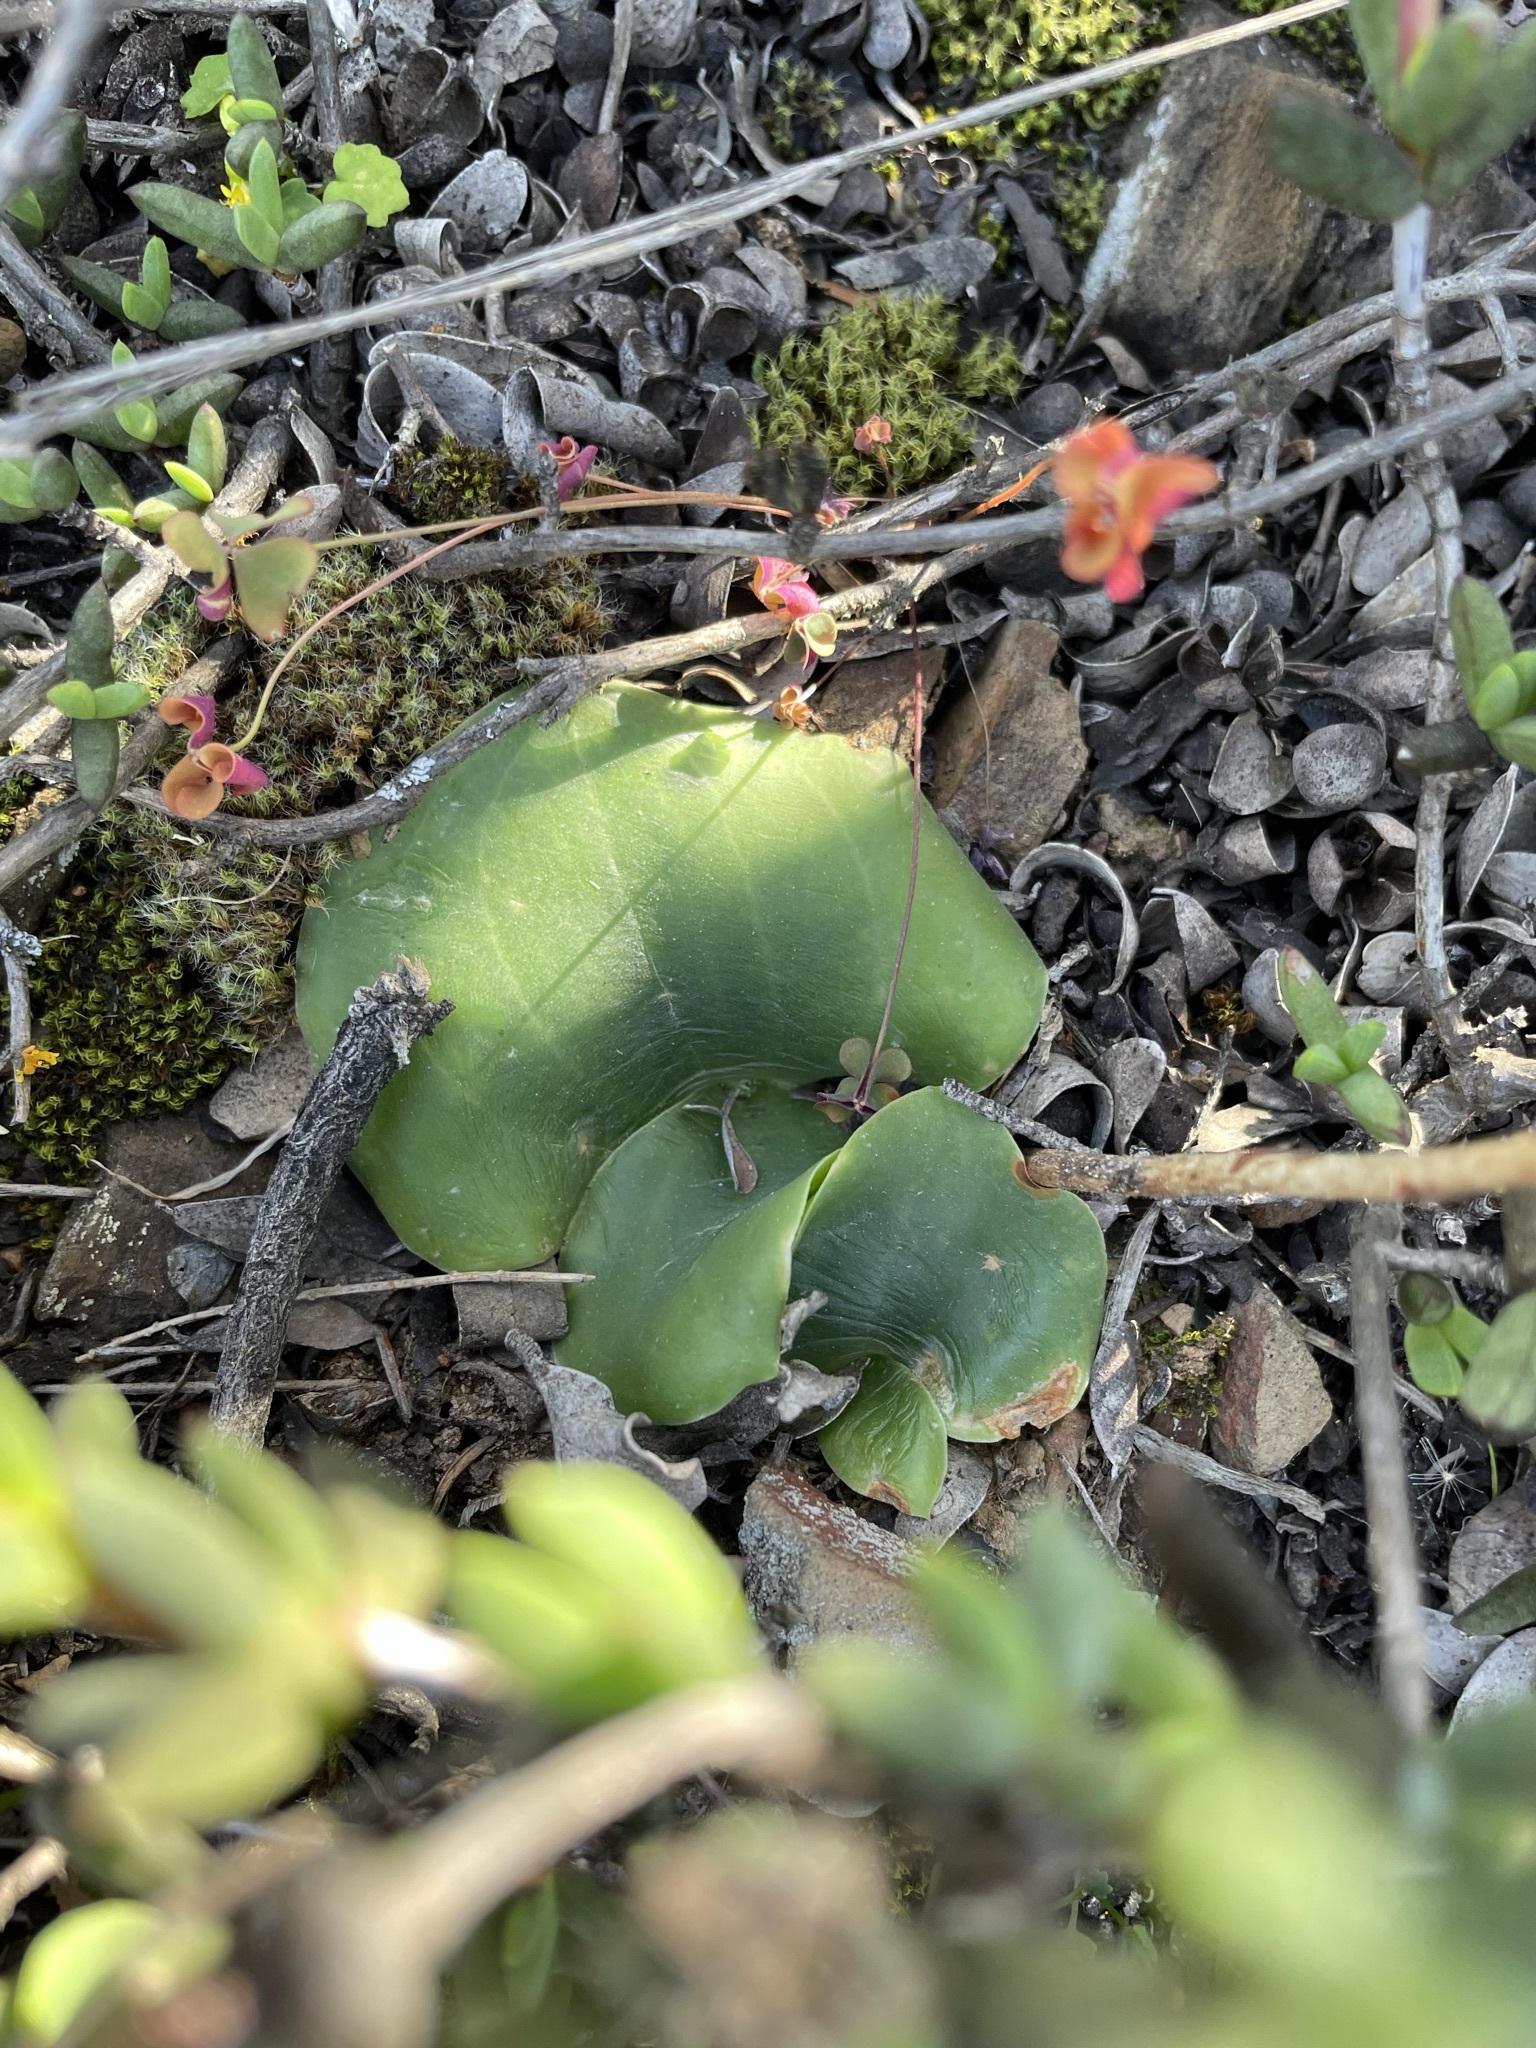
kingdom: Plantae
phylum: Tracheophyta
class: Liliopsida
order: Asparagales
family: Orchidaceae
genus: Holothrix
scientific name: Holothrix burchellii
